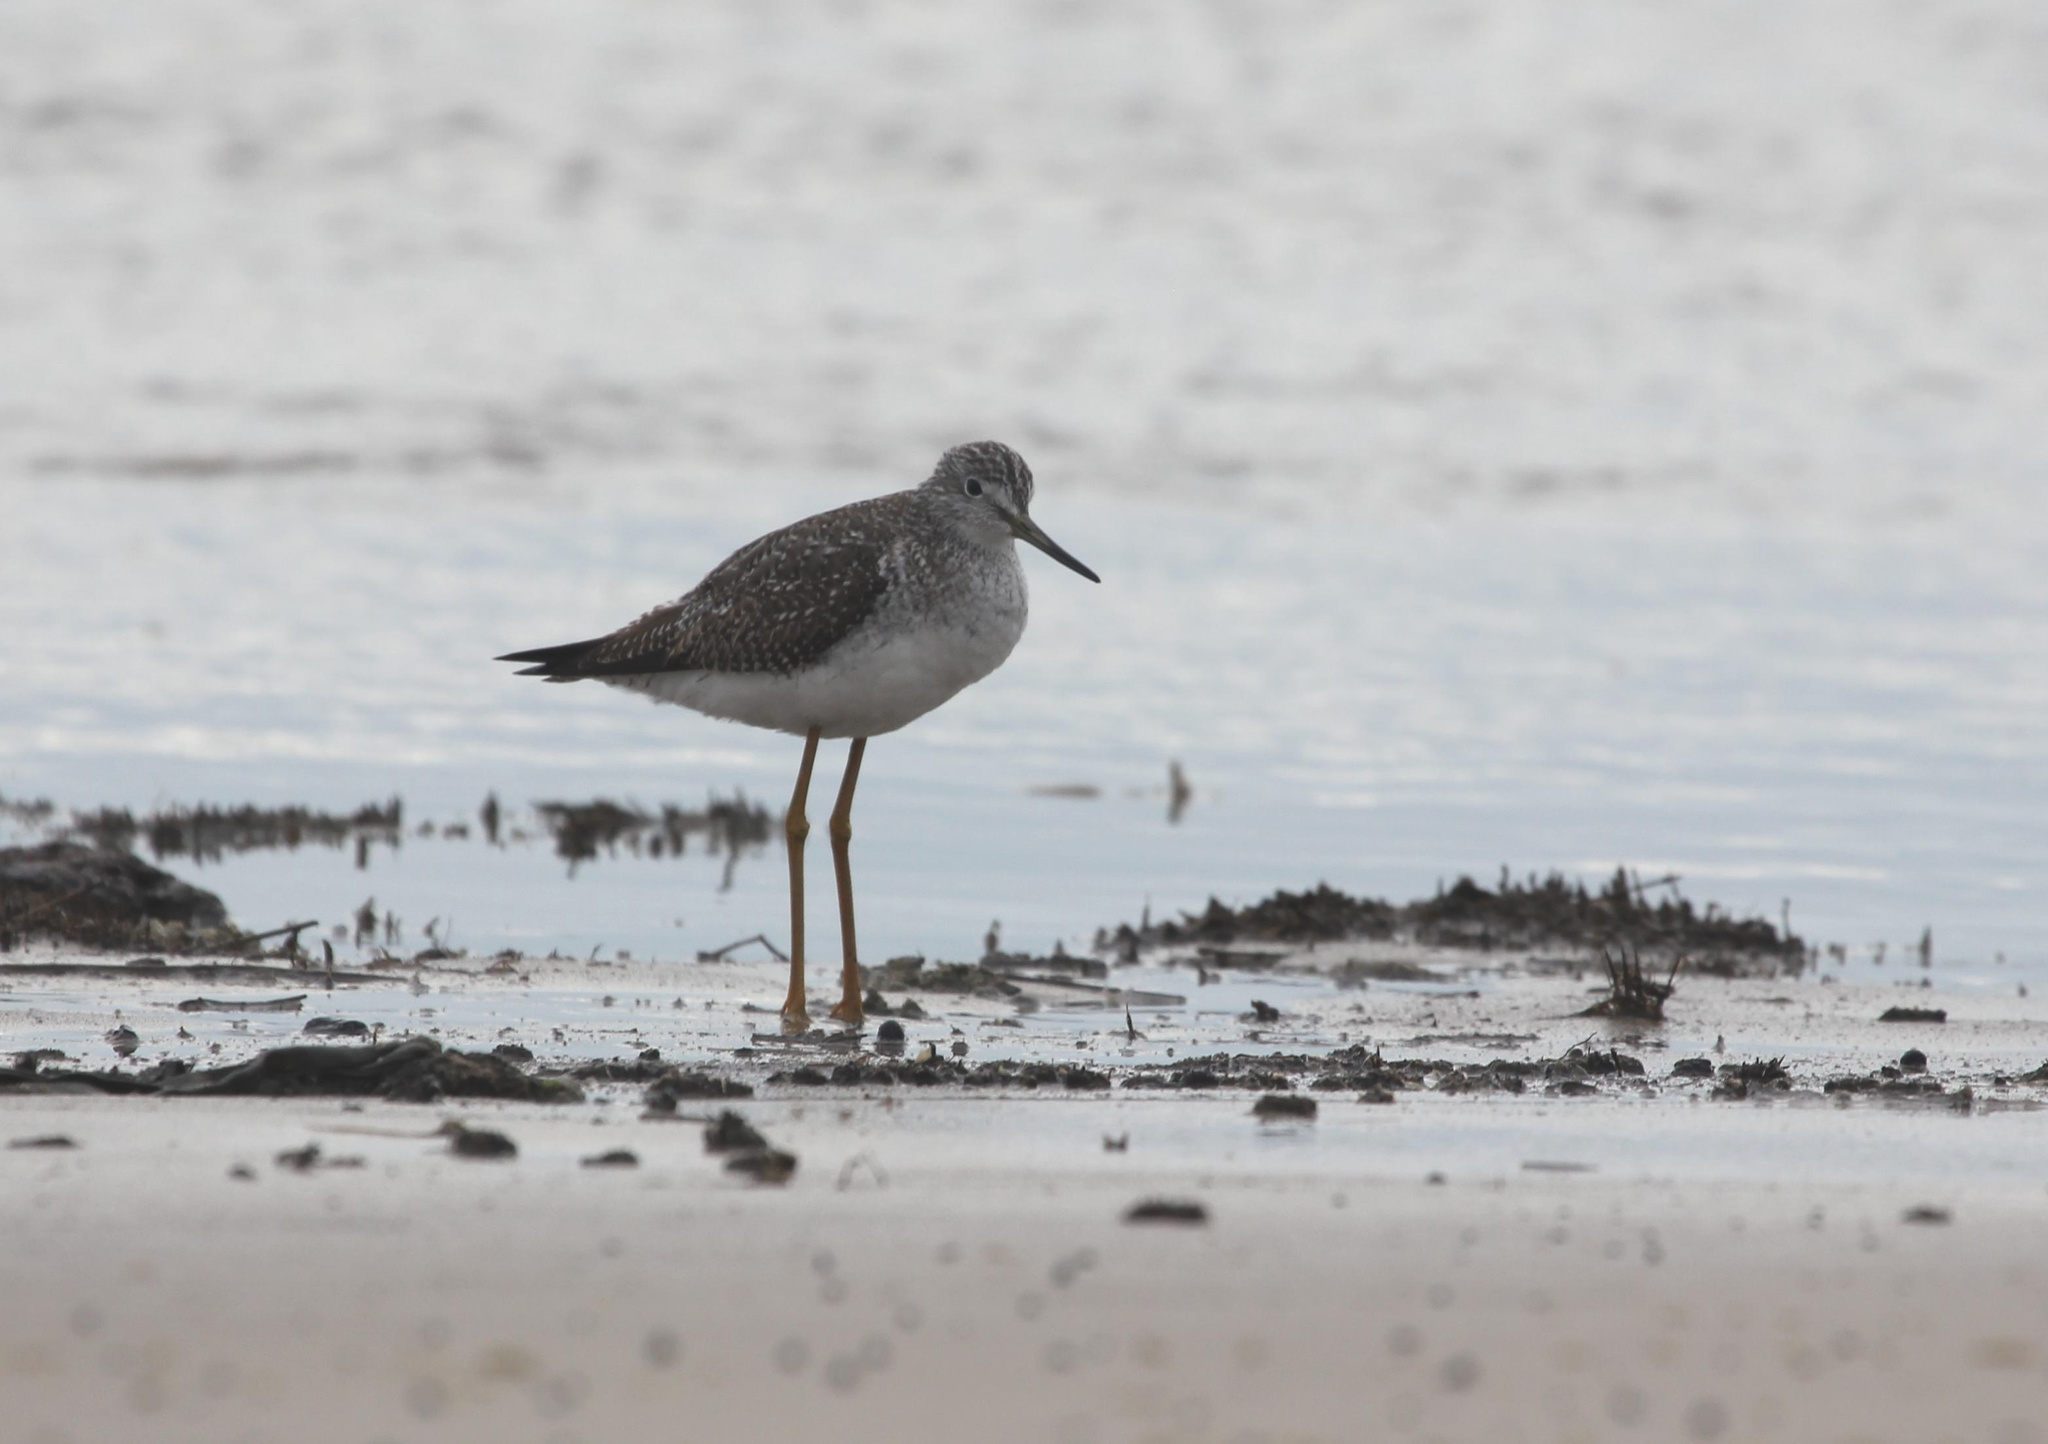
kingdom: Animalia
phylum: Chordata
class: Aves
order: Charadriiformes
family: Scolopacidae
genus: Tringa
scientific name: Tringa melanoleuca
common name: Greater yellowlegs
